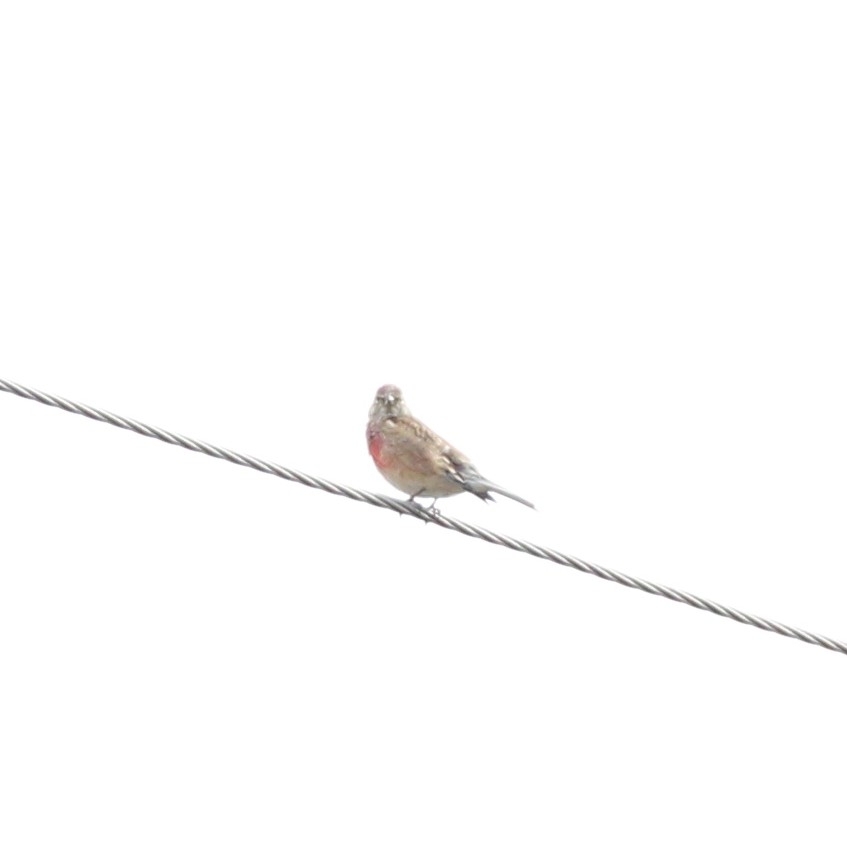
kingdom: Animalia
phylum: Chordata
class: Aves
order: Passeriformes
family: Fringillidae
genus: Linaria
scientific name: Linaria cannabina
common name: Common linnet
